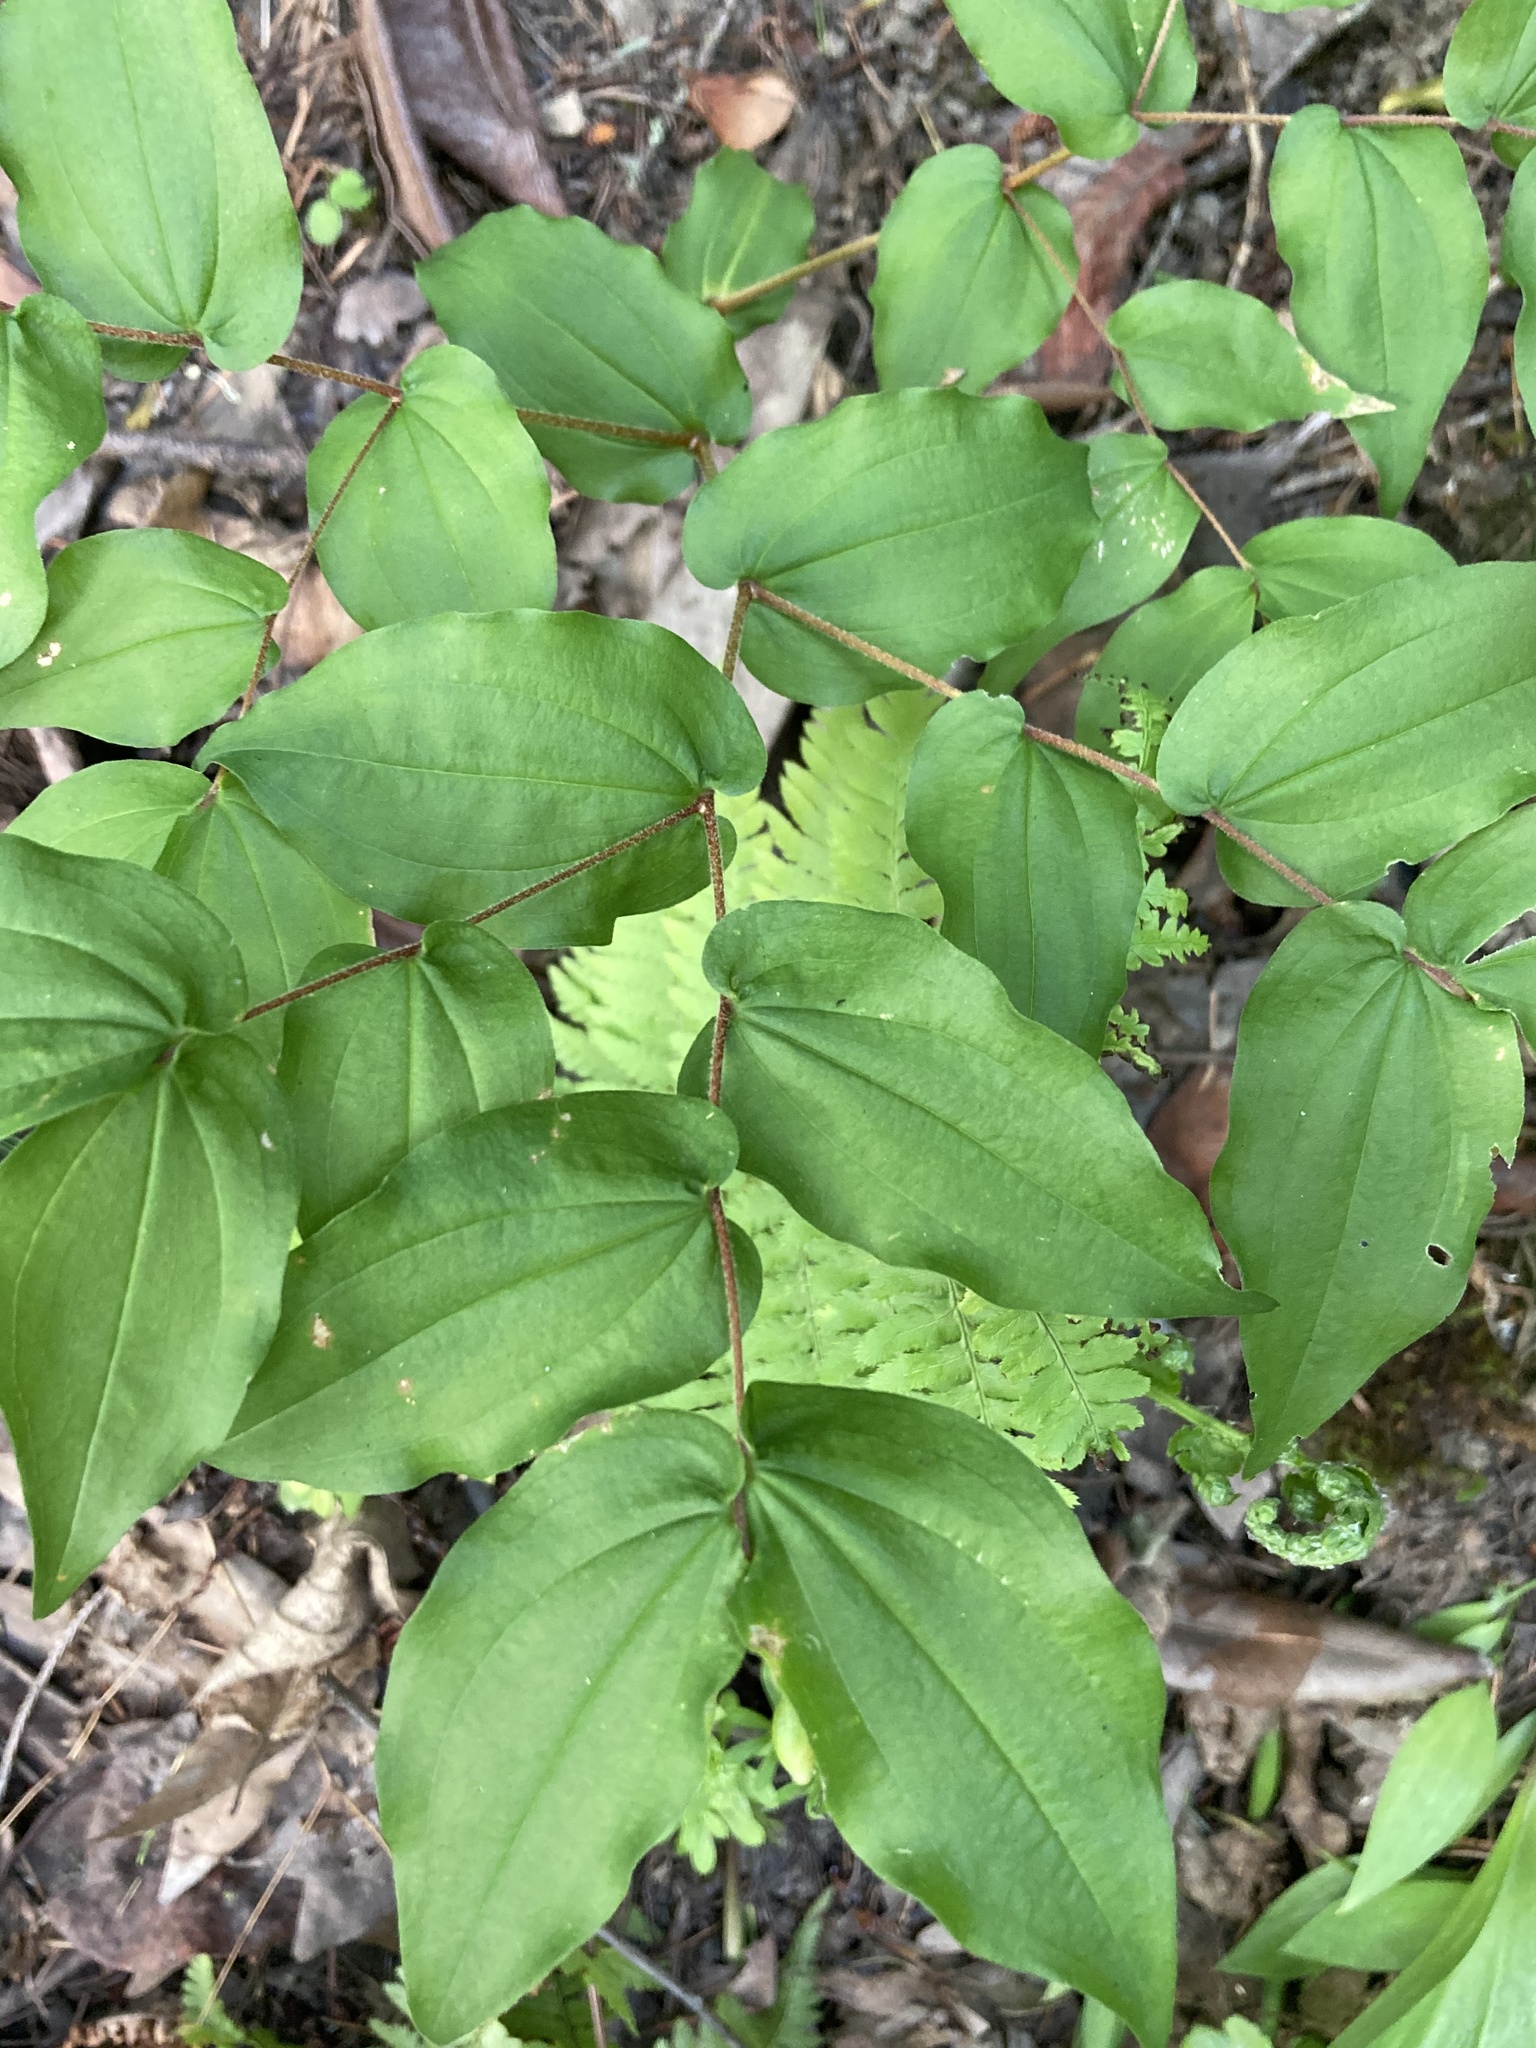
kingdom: Plantae
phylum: Tracheophyta
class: Liliopsida
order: Liliales
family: Liliaceae
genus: Prosartes
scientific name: Prosartes hookeri
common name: Fairy-bells
